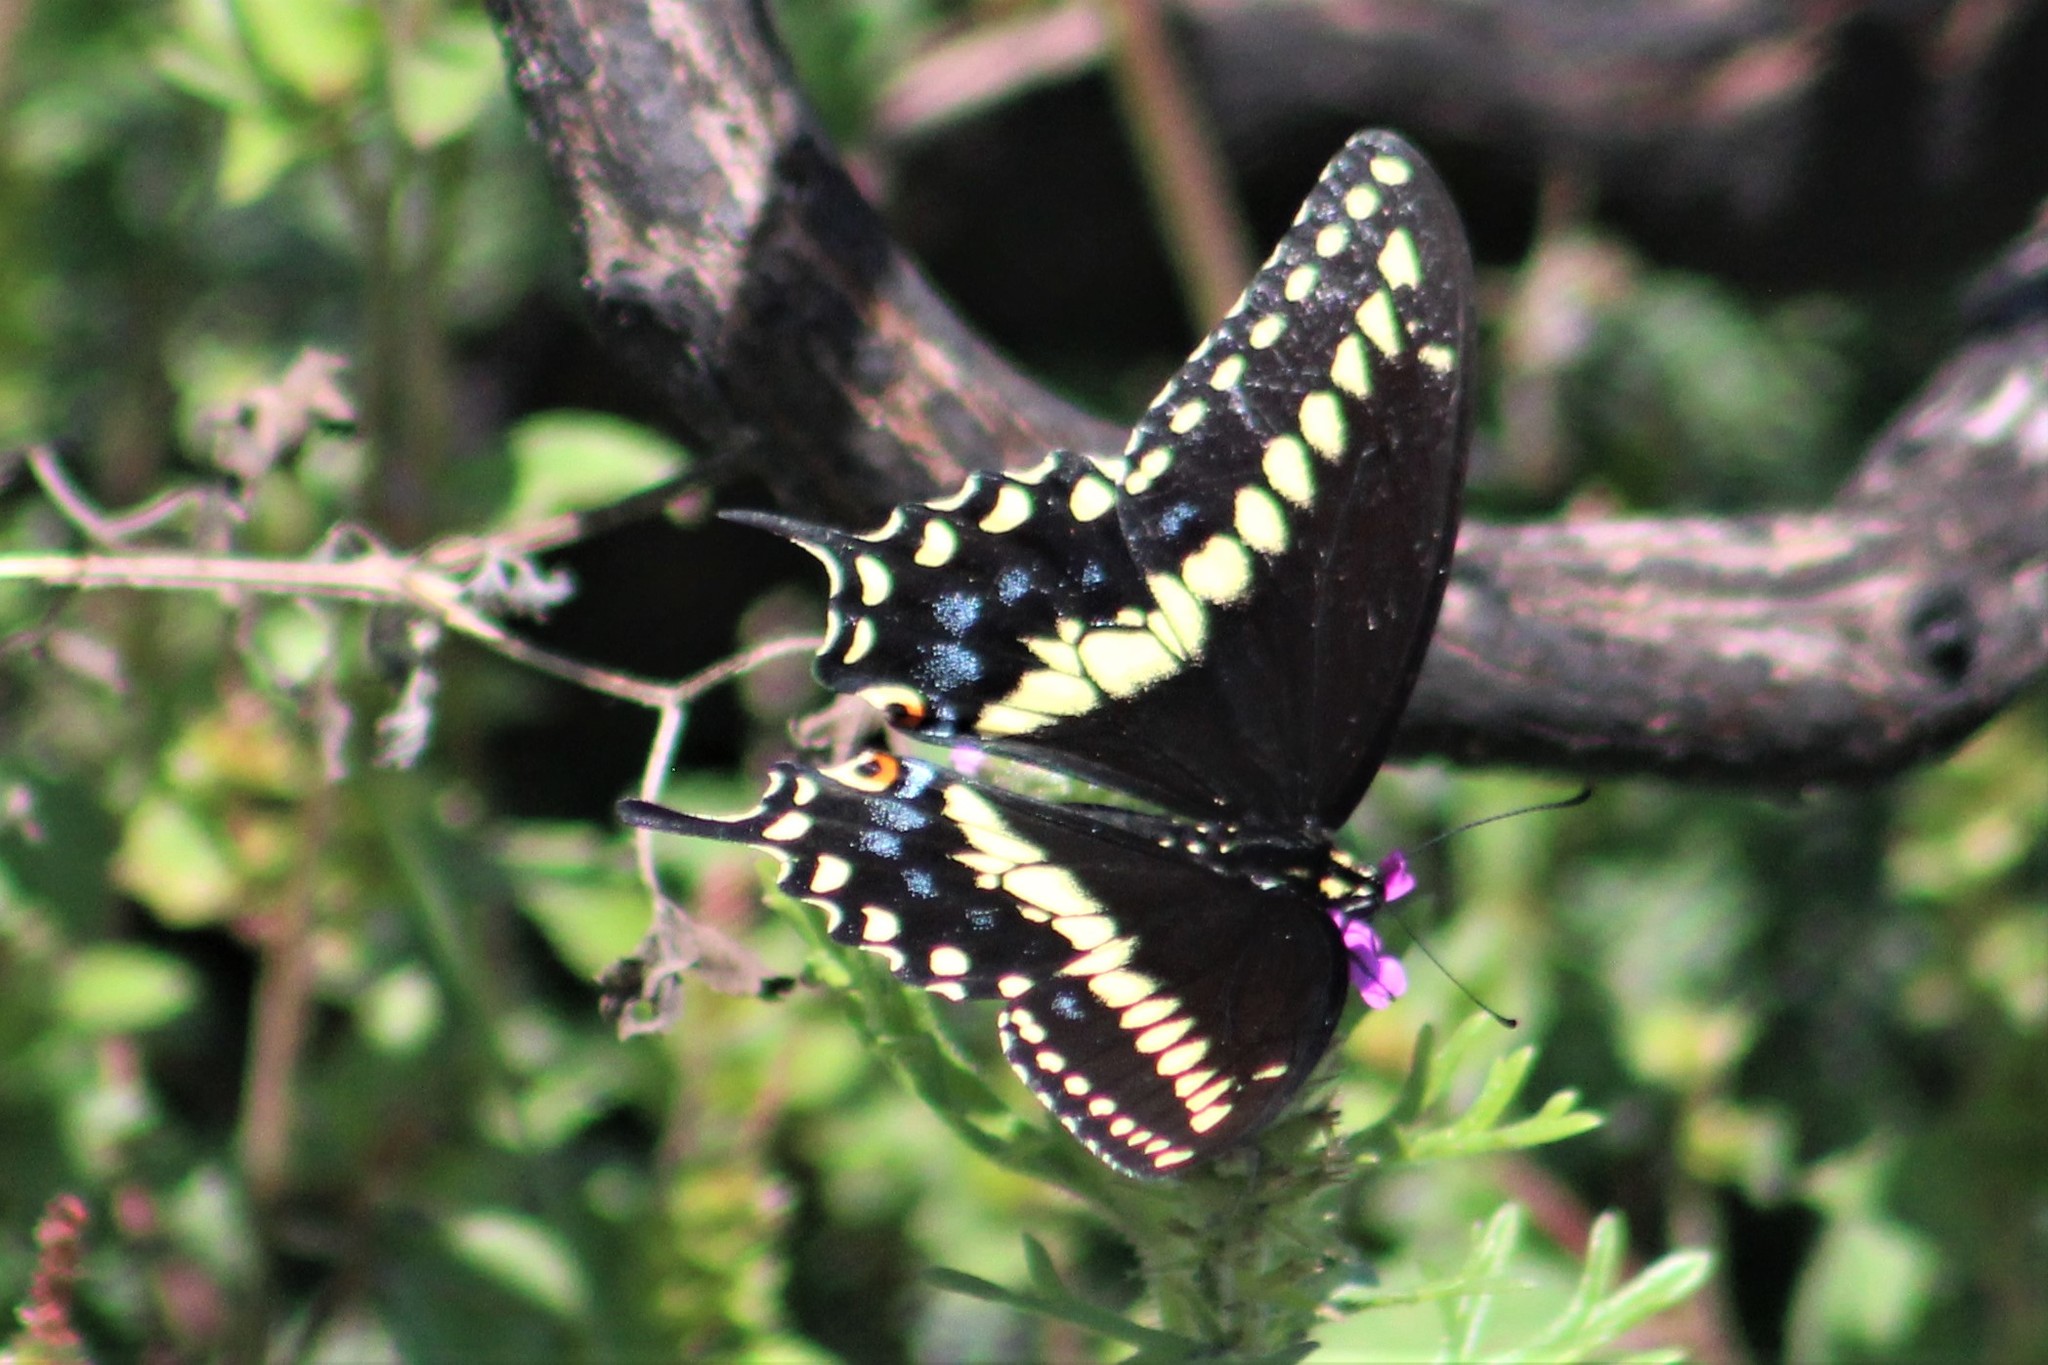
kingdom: Animalia
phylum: Arthropoda
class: Insecta
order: Lepidoptera
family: Papilionidae
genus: Papilio
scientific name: Papilio polyxenes
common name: Black swallowtail
